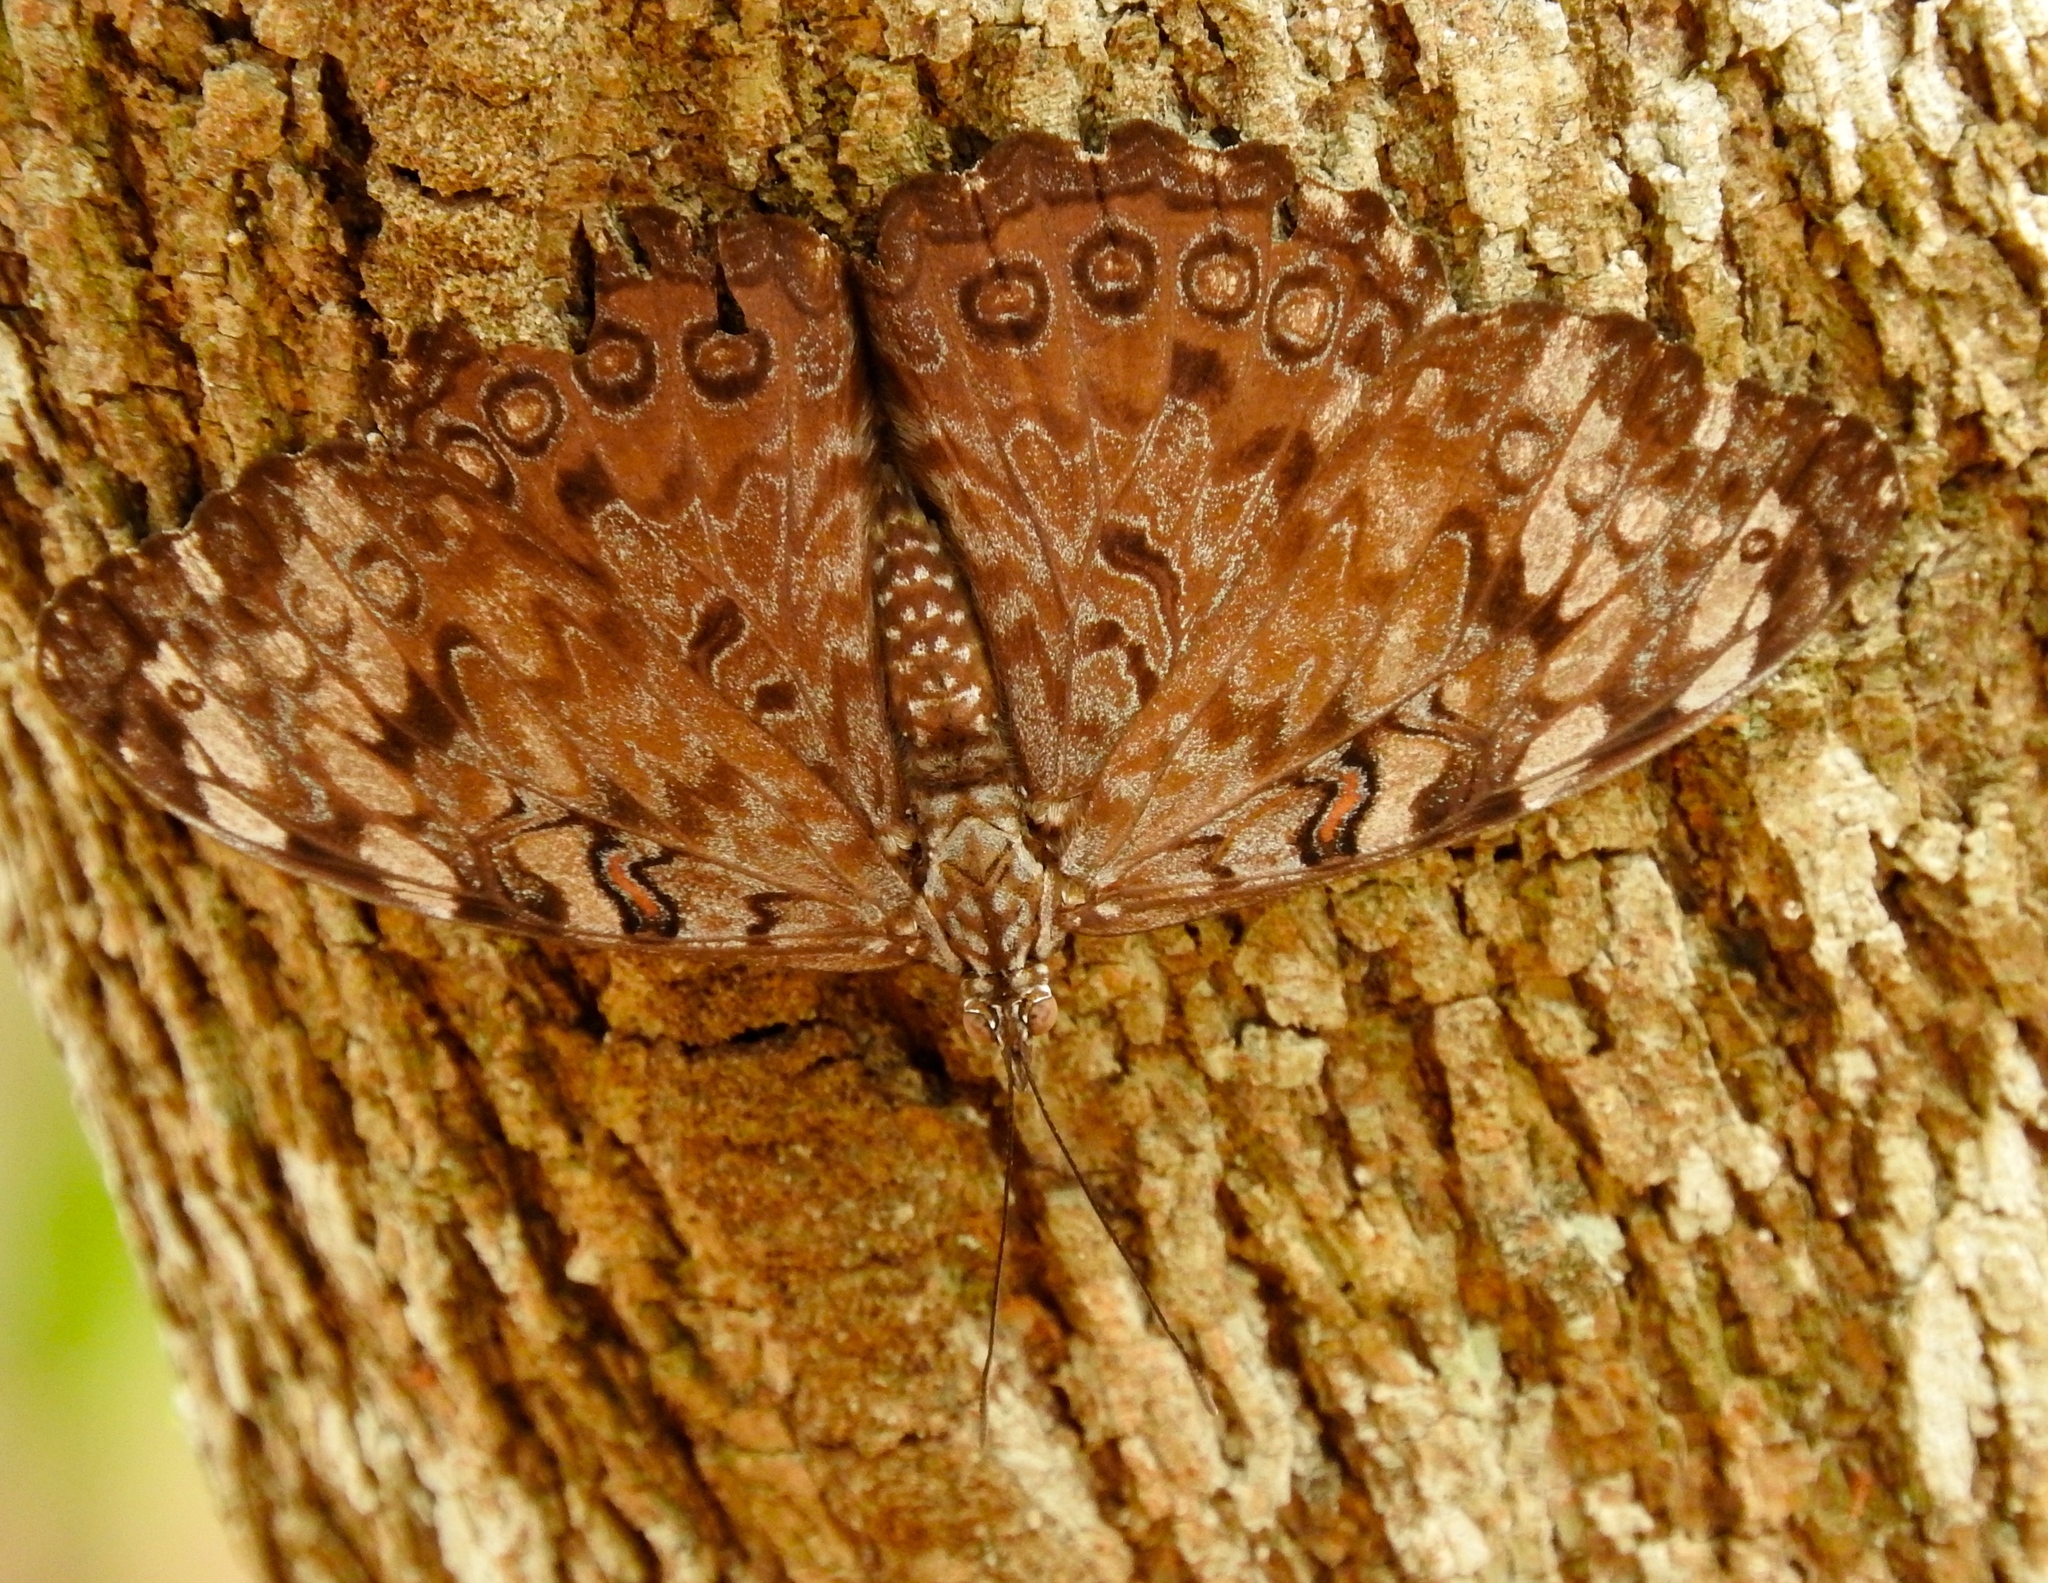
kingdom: Animalia
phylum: Arthropoda
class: Insecta
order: Lepidoptera
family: Nymphalidae
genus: Hamadryas
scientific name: Hamadryas guatemalena
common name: Guatemalan cracker
